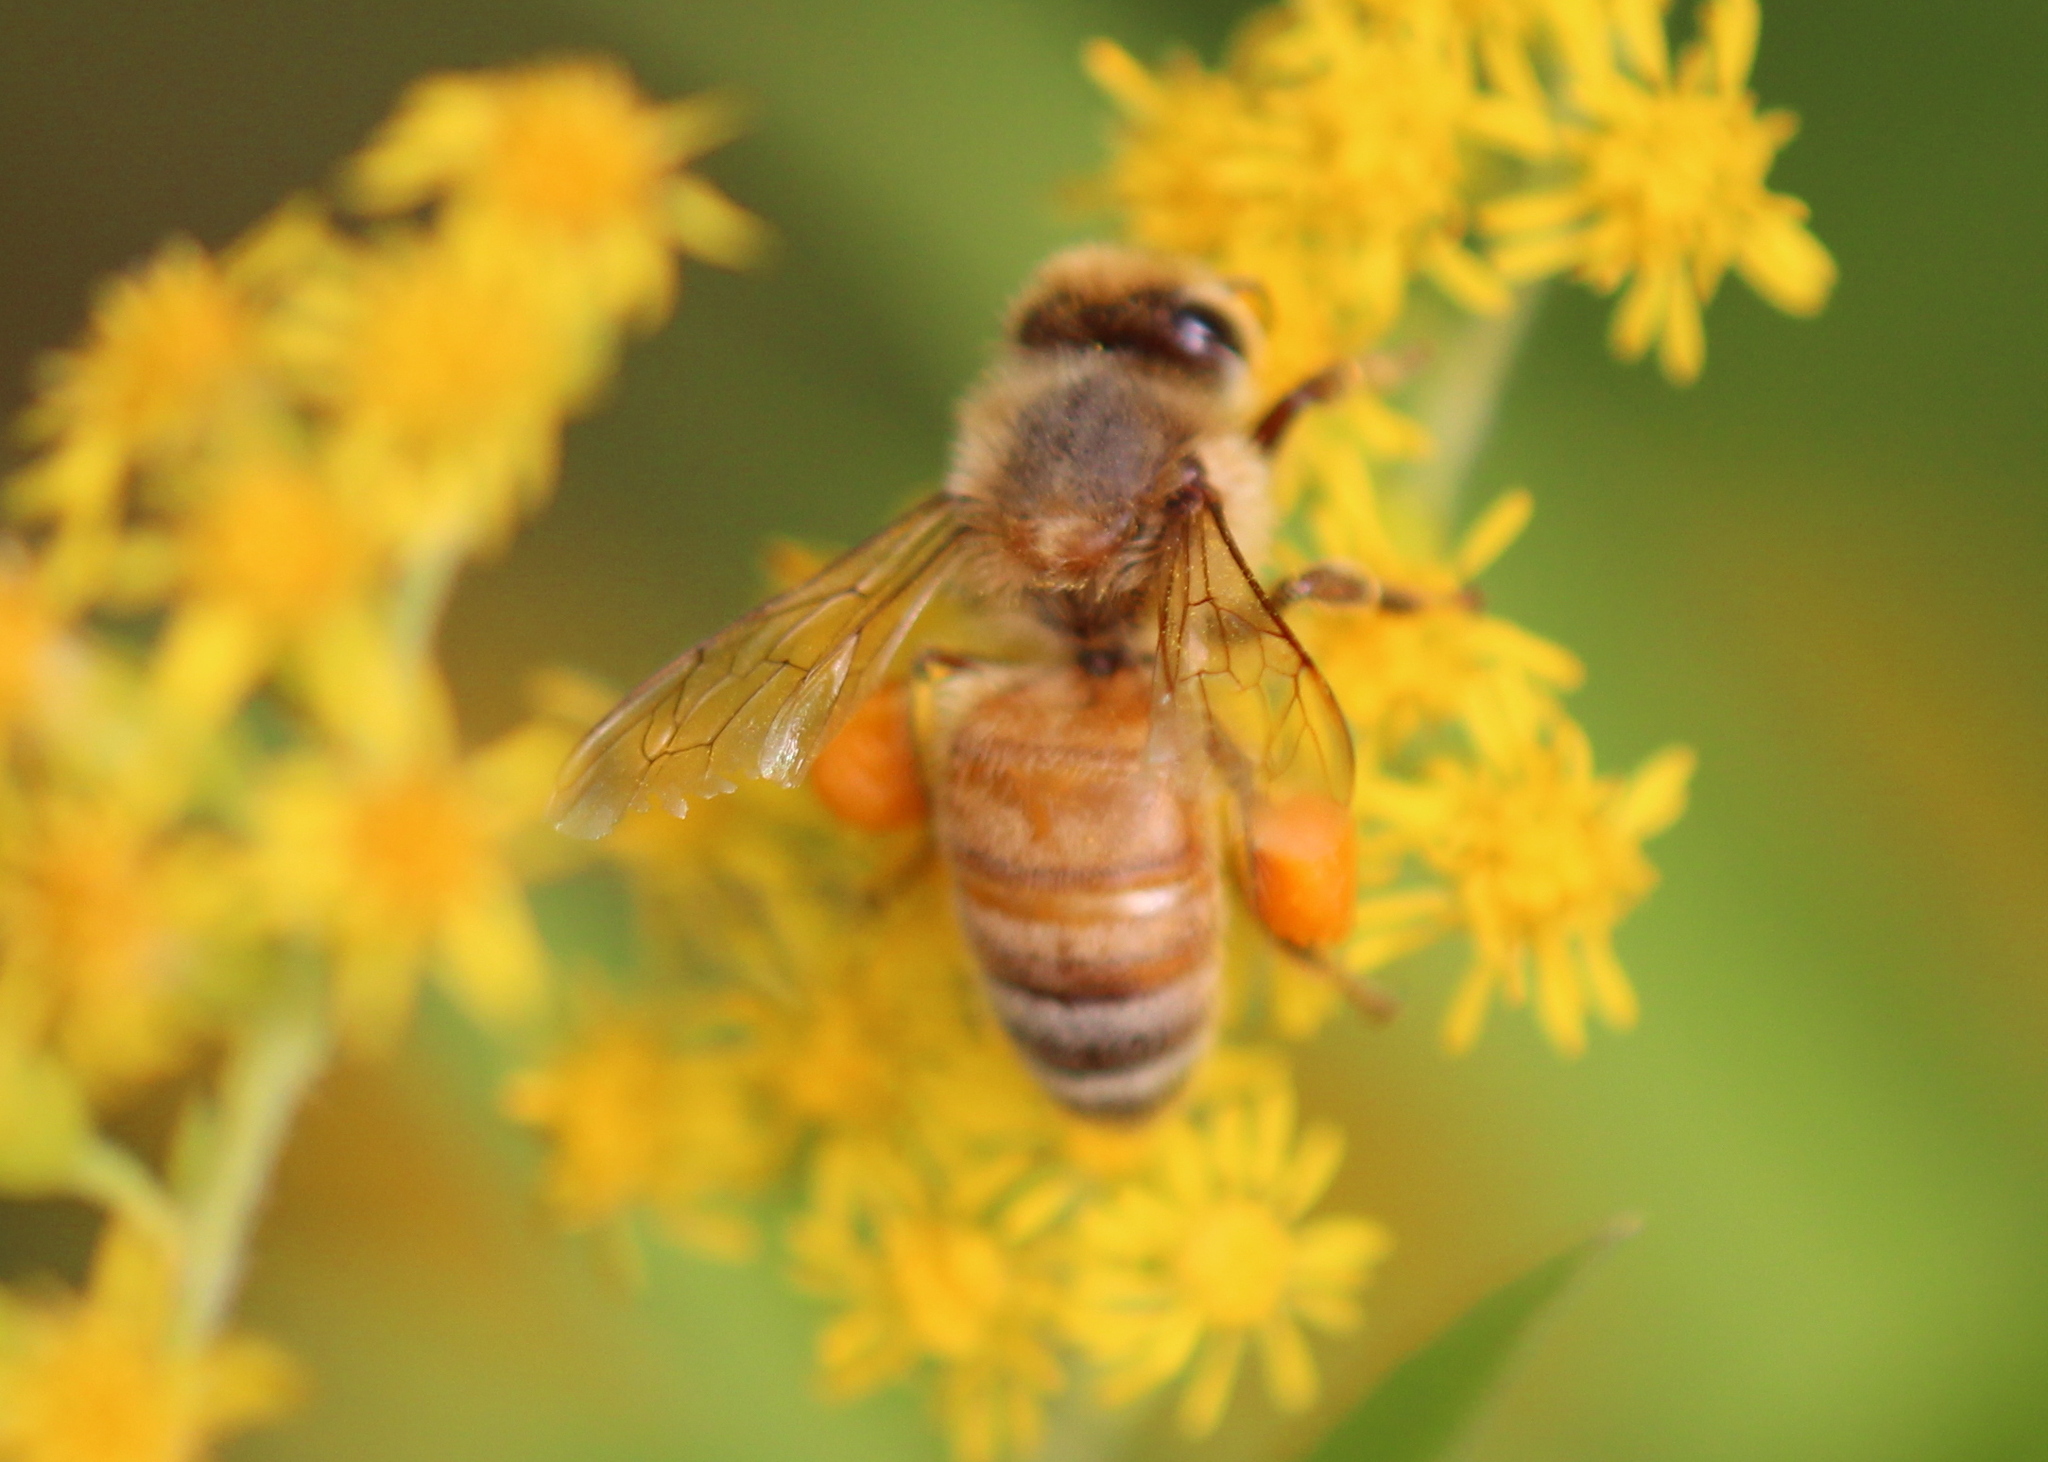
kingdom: Animalia
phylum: Arthropoda
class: Insecta
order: Hymenoptera
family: Apidae
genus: Apis
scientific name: Apis mellifera
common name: Honey bee
